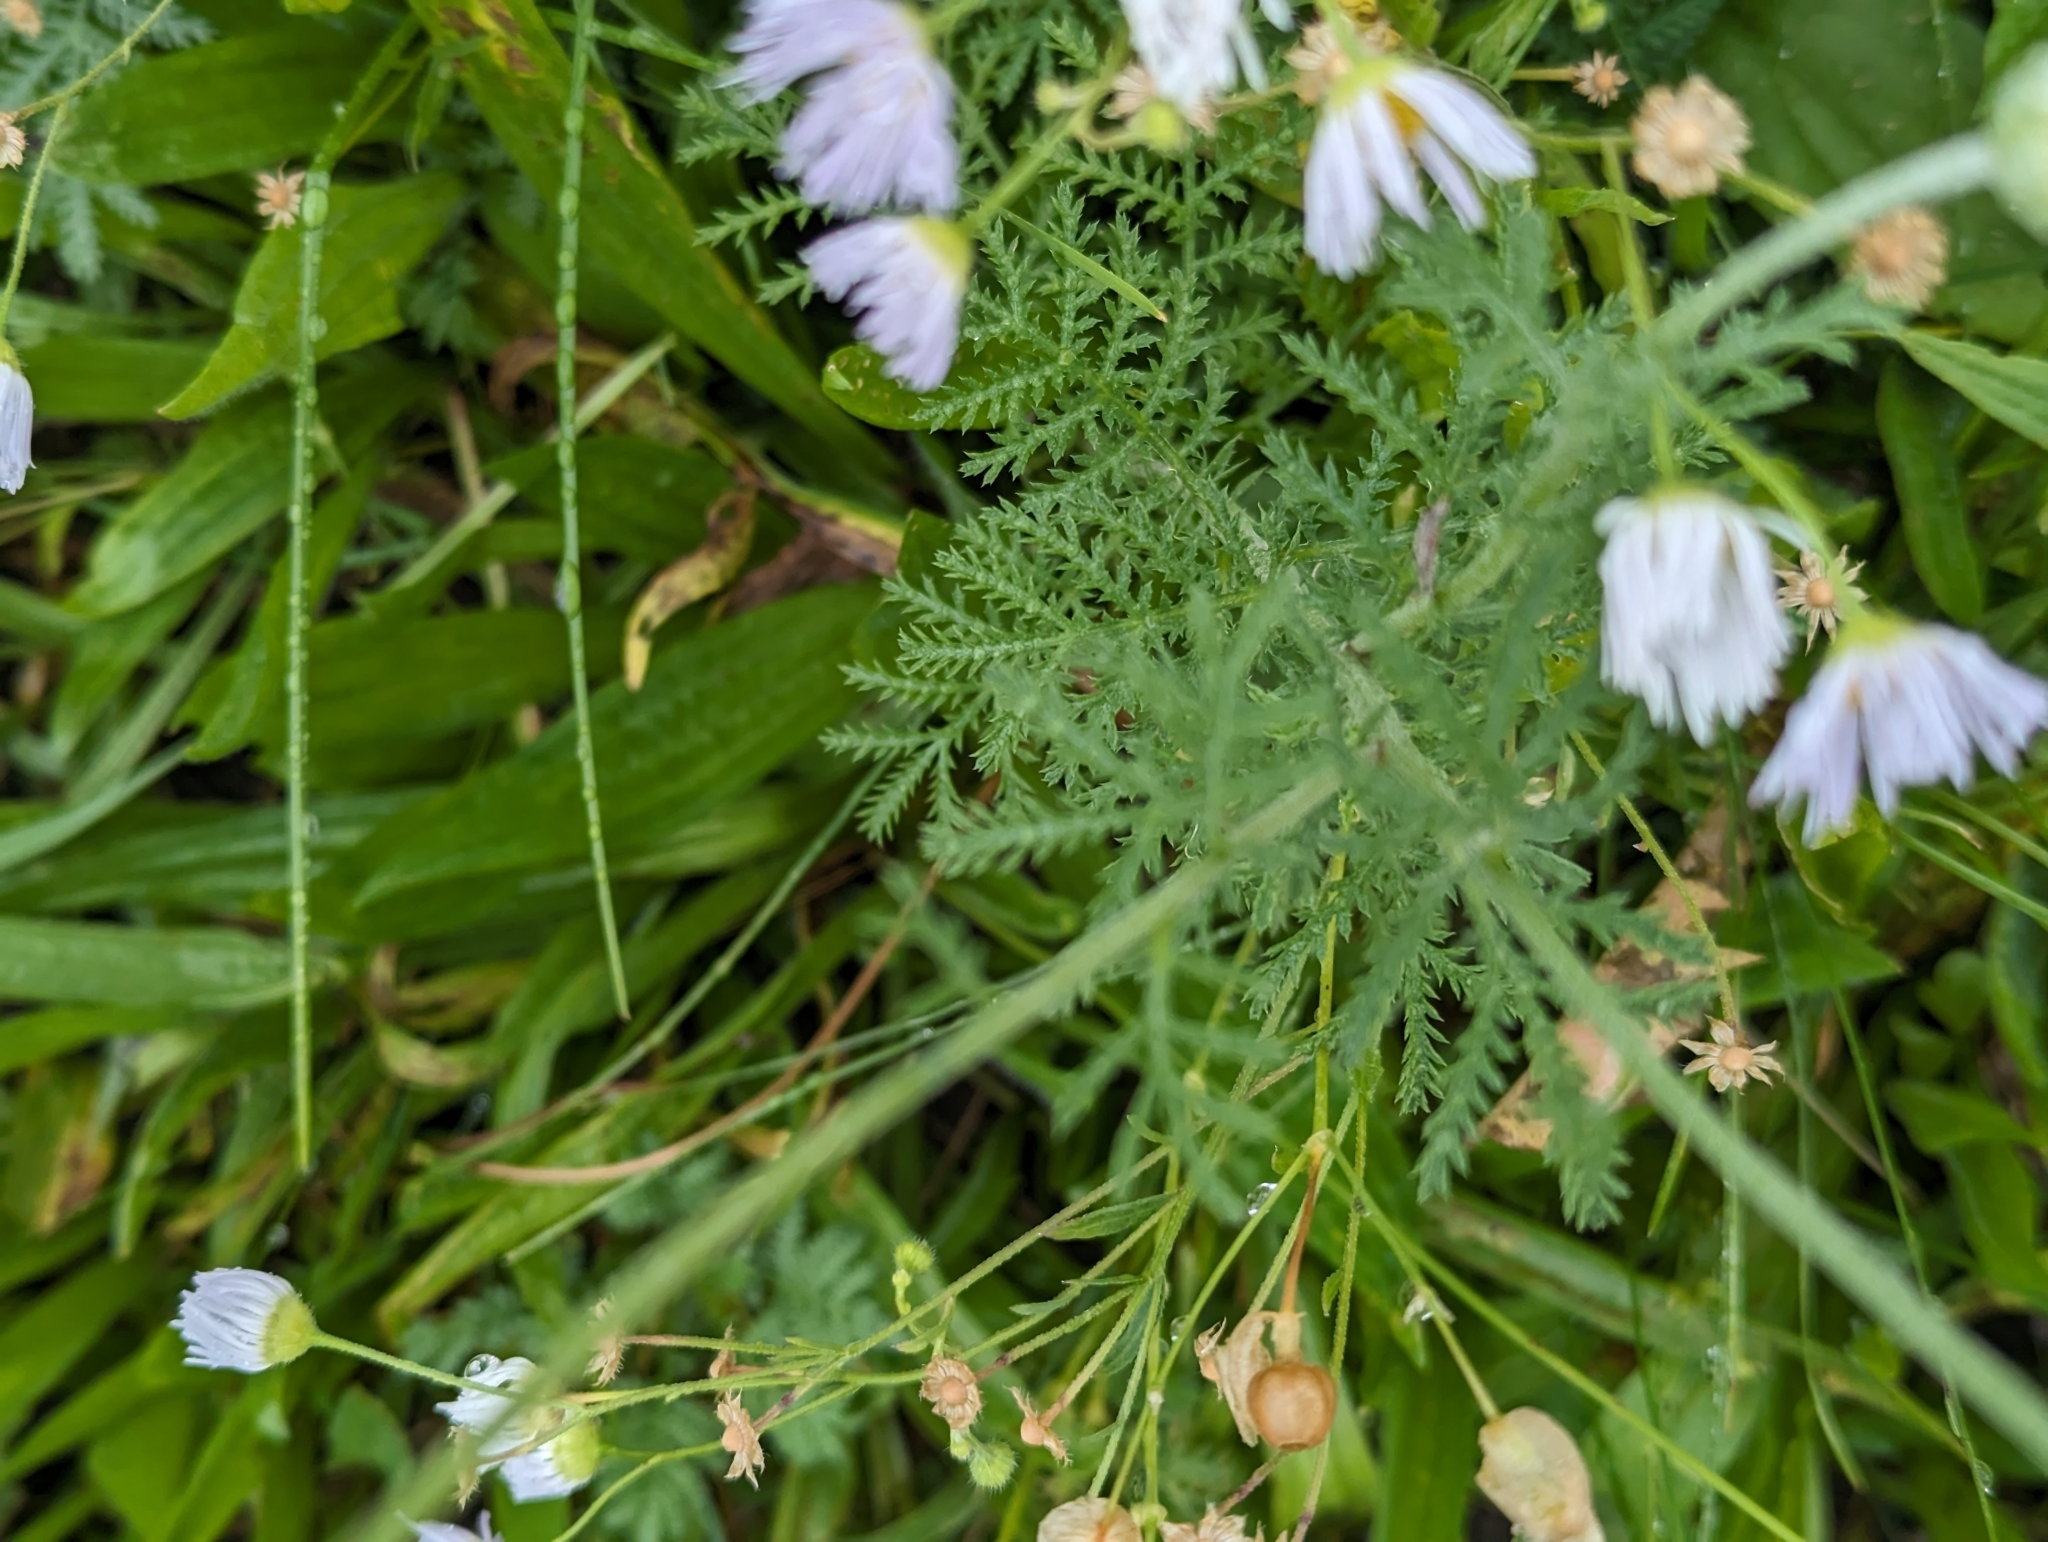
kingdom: Plantae
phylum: Tracheophyta
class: Magnoliopsida
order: Asterales
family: Asteraceae
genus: Cota
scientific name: Cota tinctoria
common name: Golden chamomile
